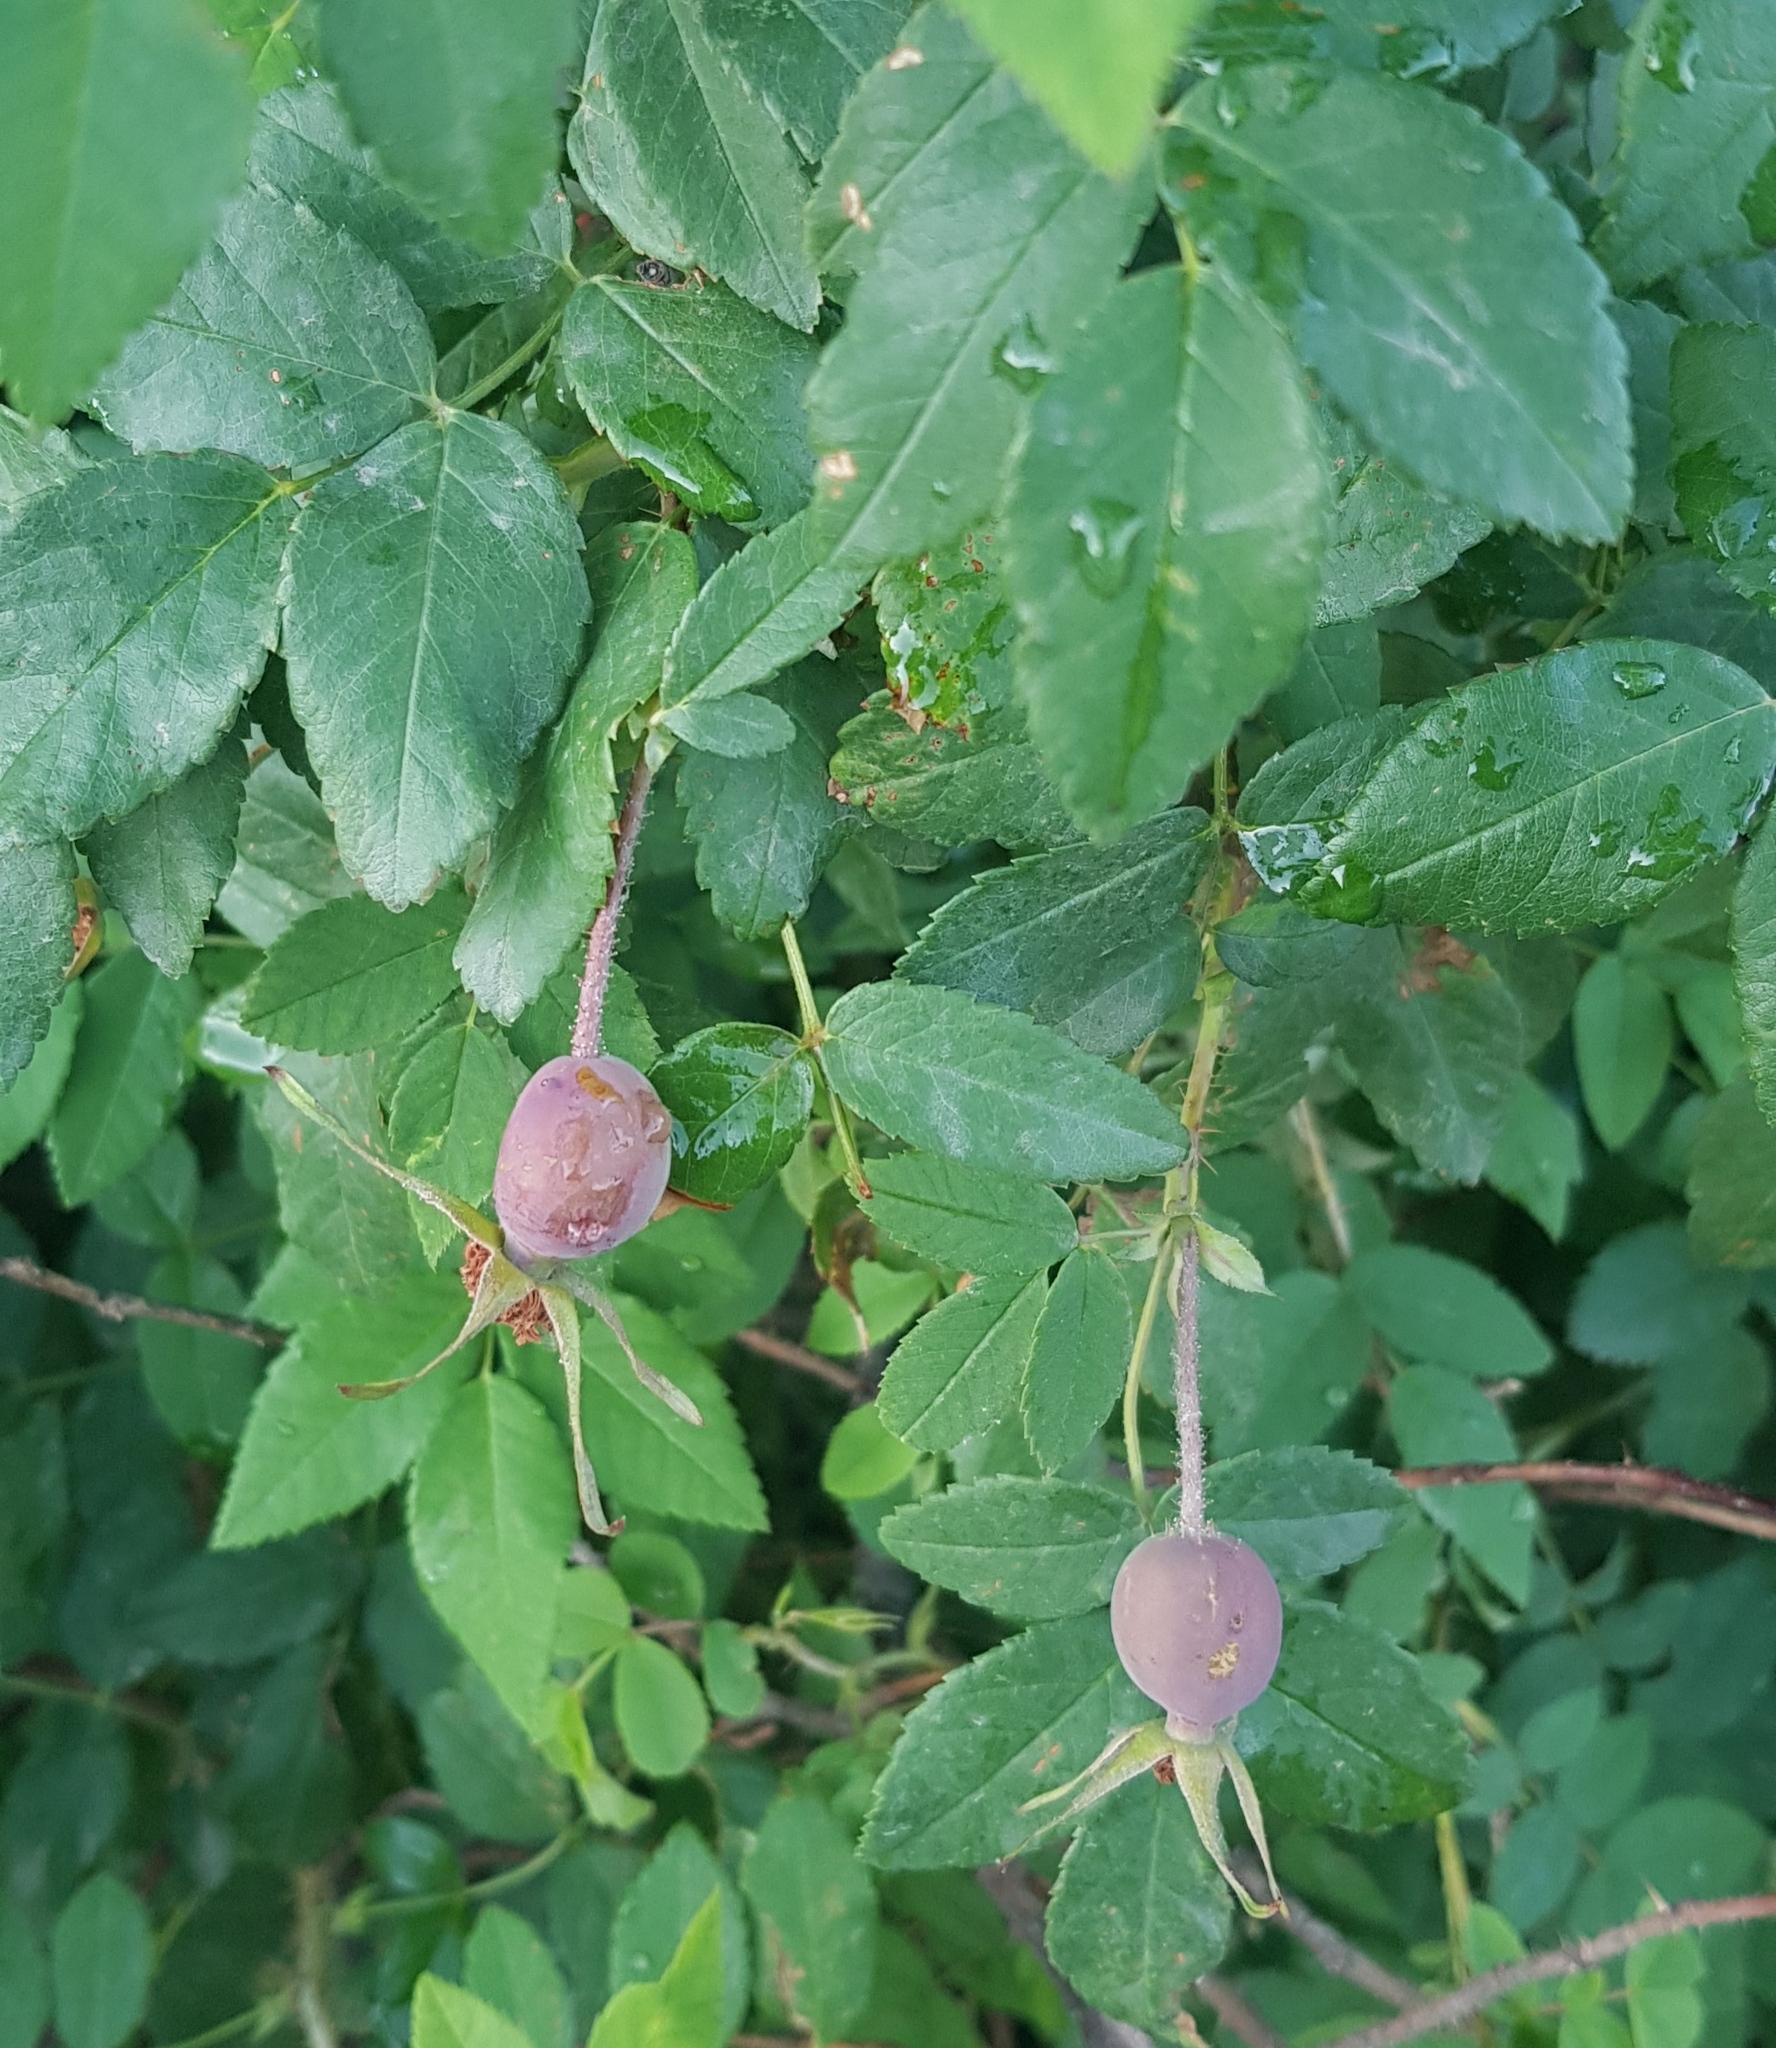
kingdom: Plantae
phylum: Tracheophyta
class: Magnoliopsida
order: Rosales
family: Rosaceae
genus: Rosa
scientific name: Rosa acicularis
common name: Prickly rose
